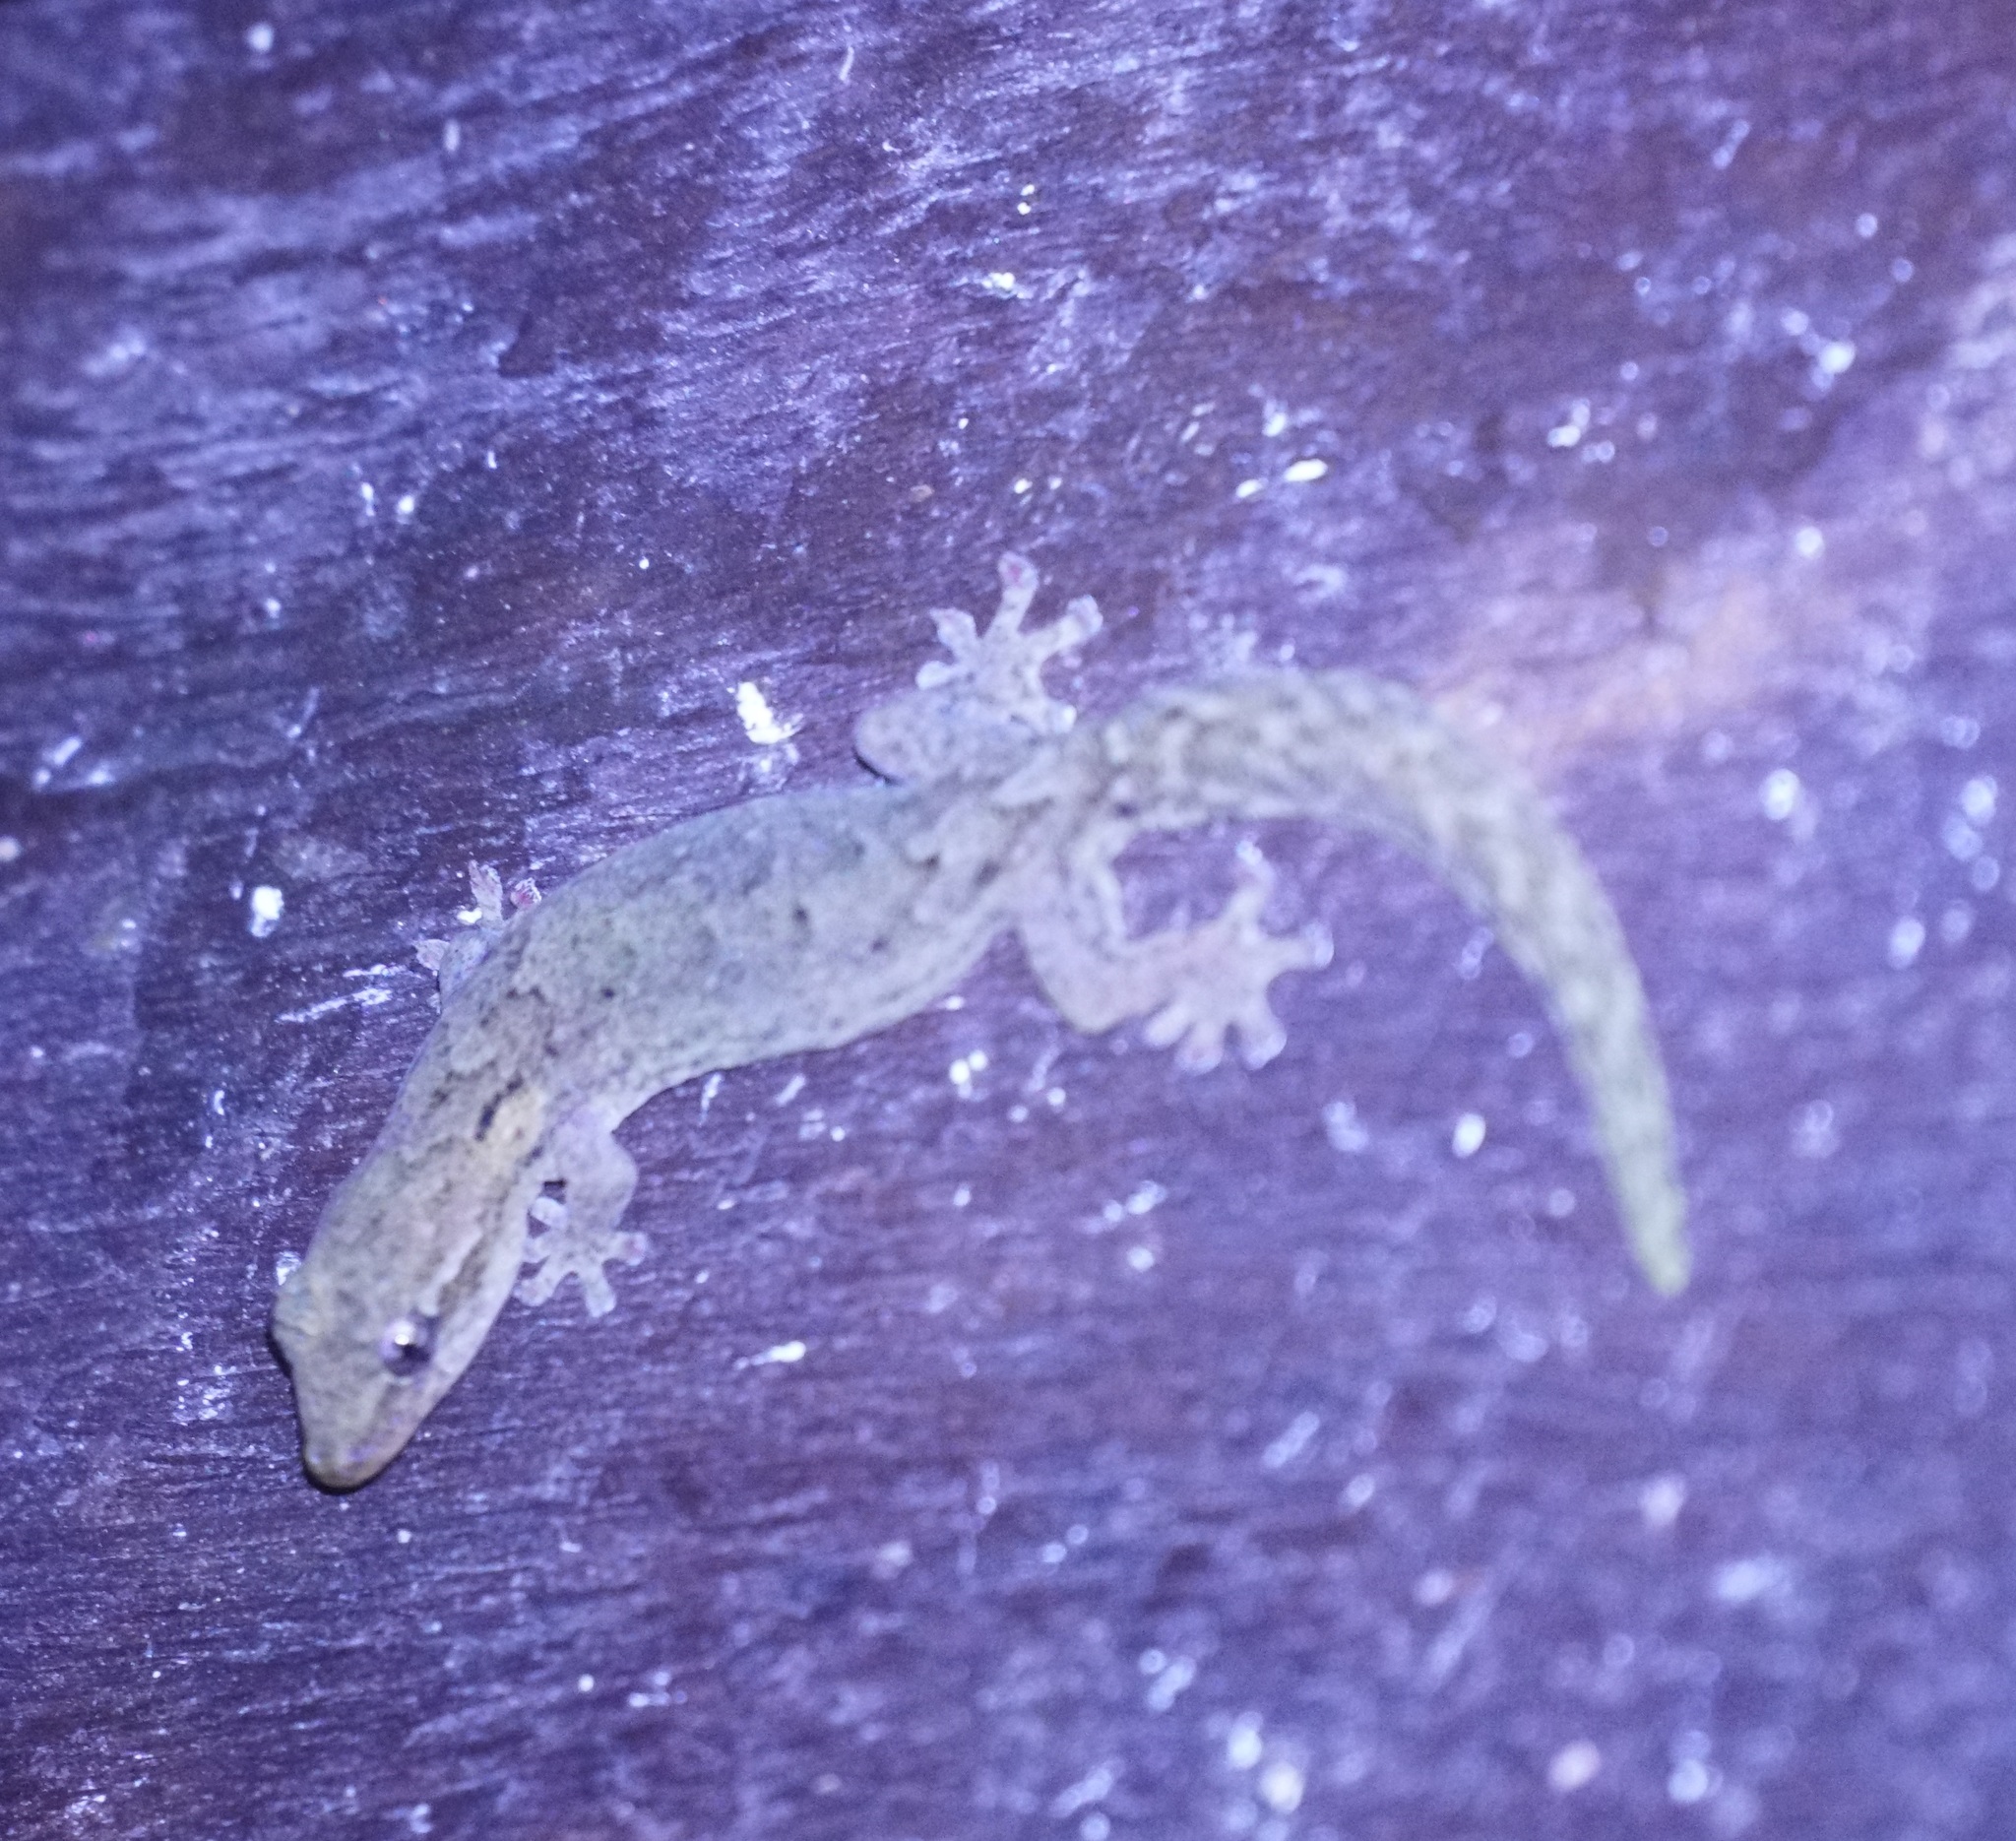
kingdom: Animalia
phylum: Chordata
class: Squamata
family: Gekkonidae
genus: Lepidodactylus
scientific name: Lepidodactylus lugubris
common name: Mourning gecko
